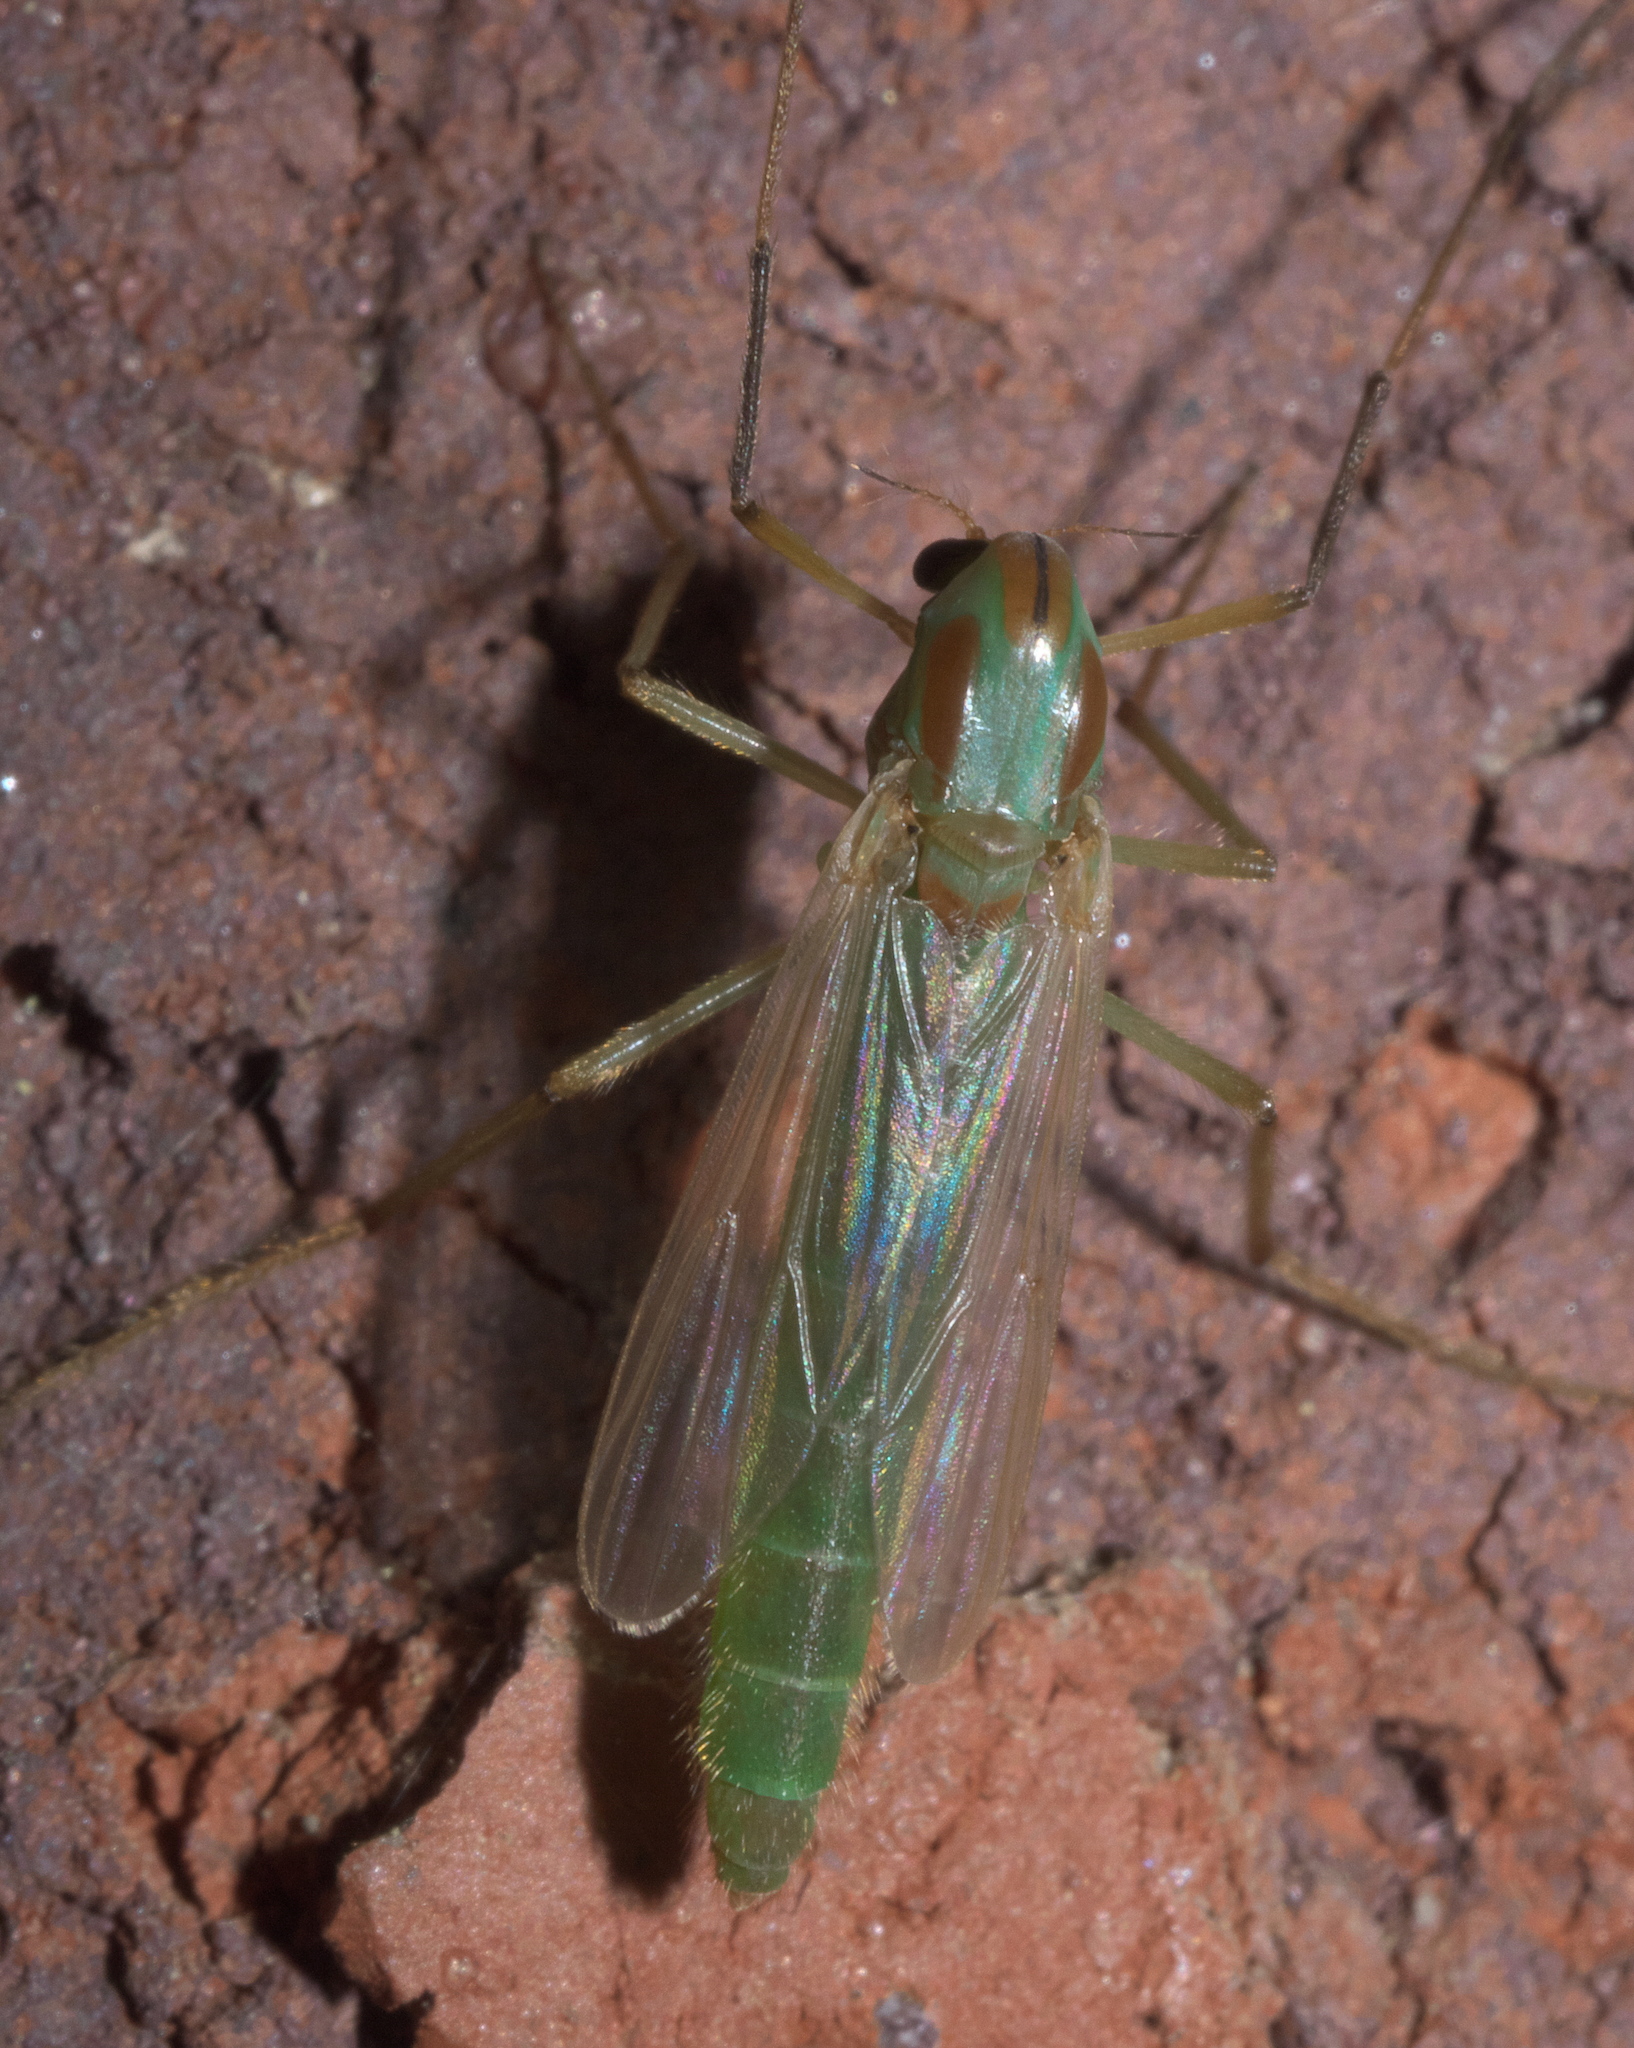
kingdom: Animalia
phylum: Arthropoda
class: Insecta
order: Diptera
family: Chironomidae
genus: Axarus
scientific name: Axarus
